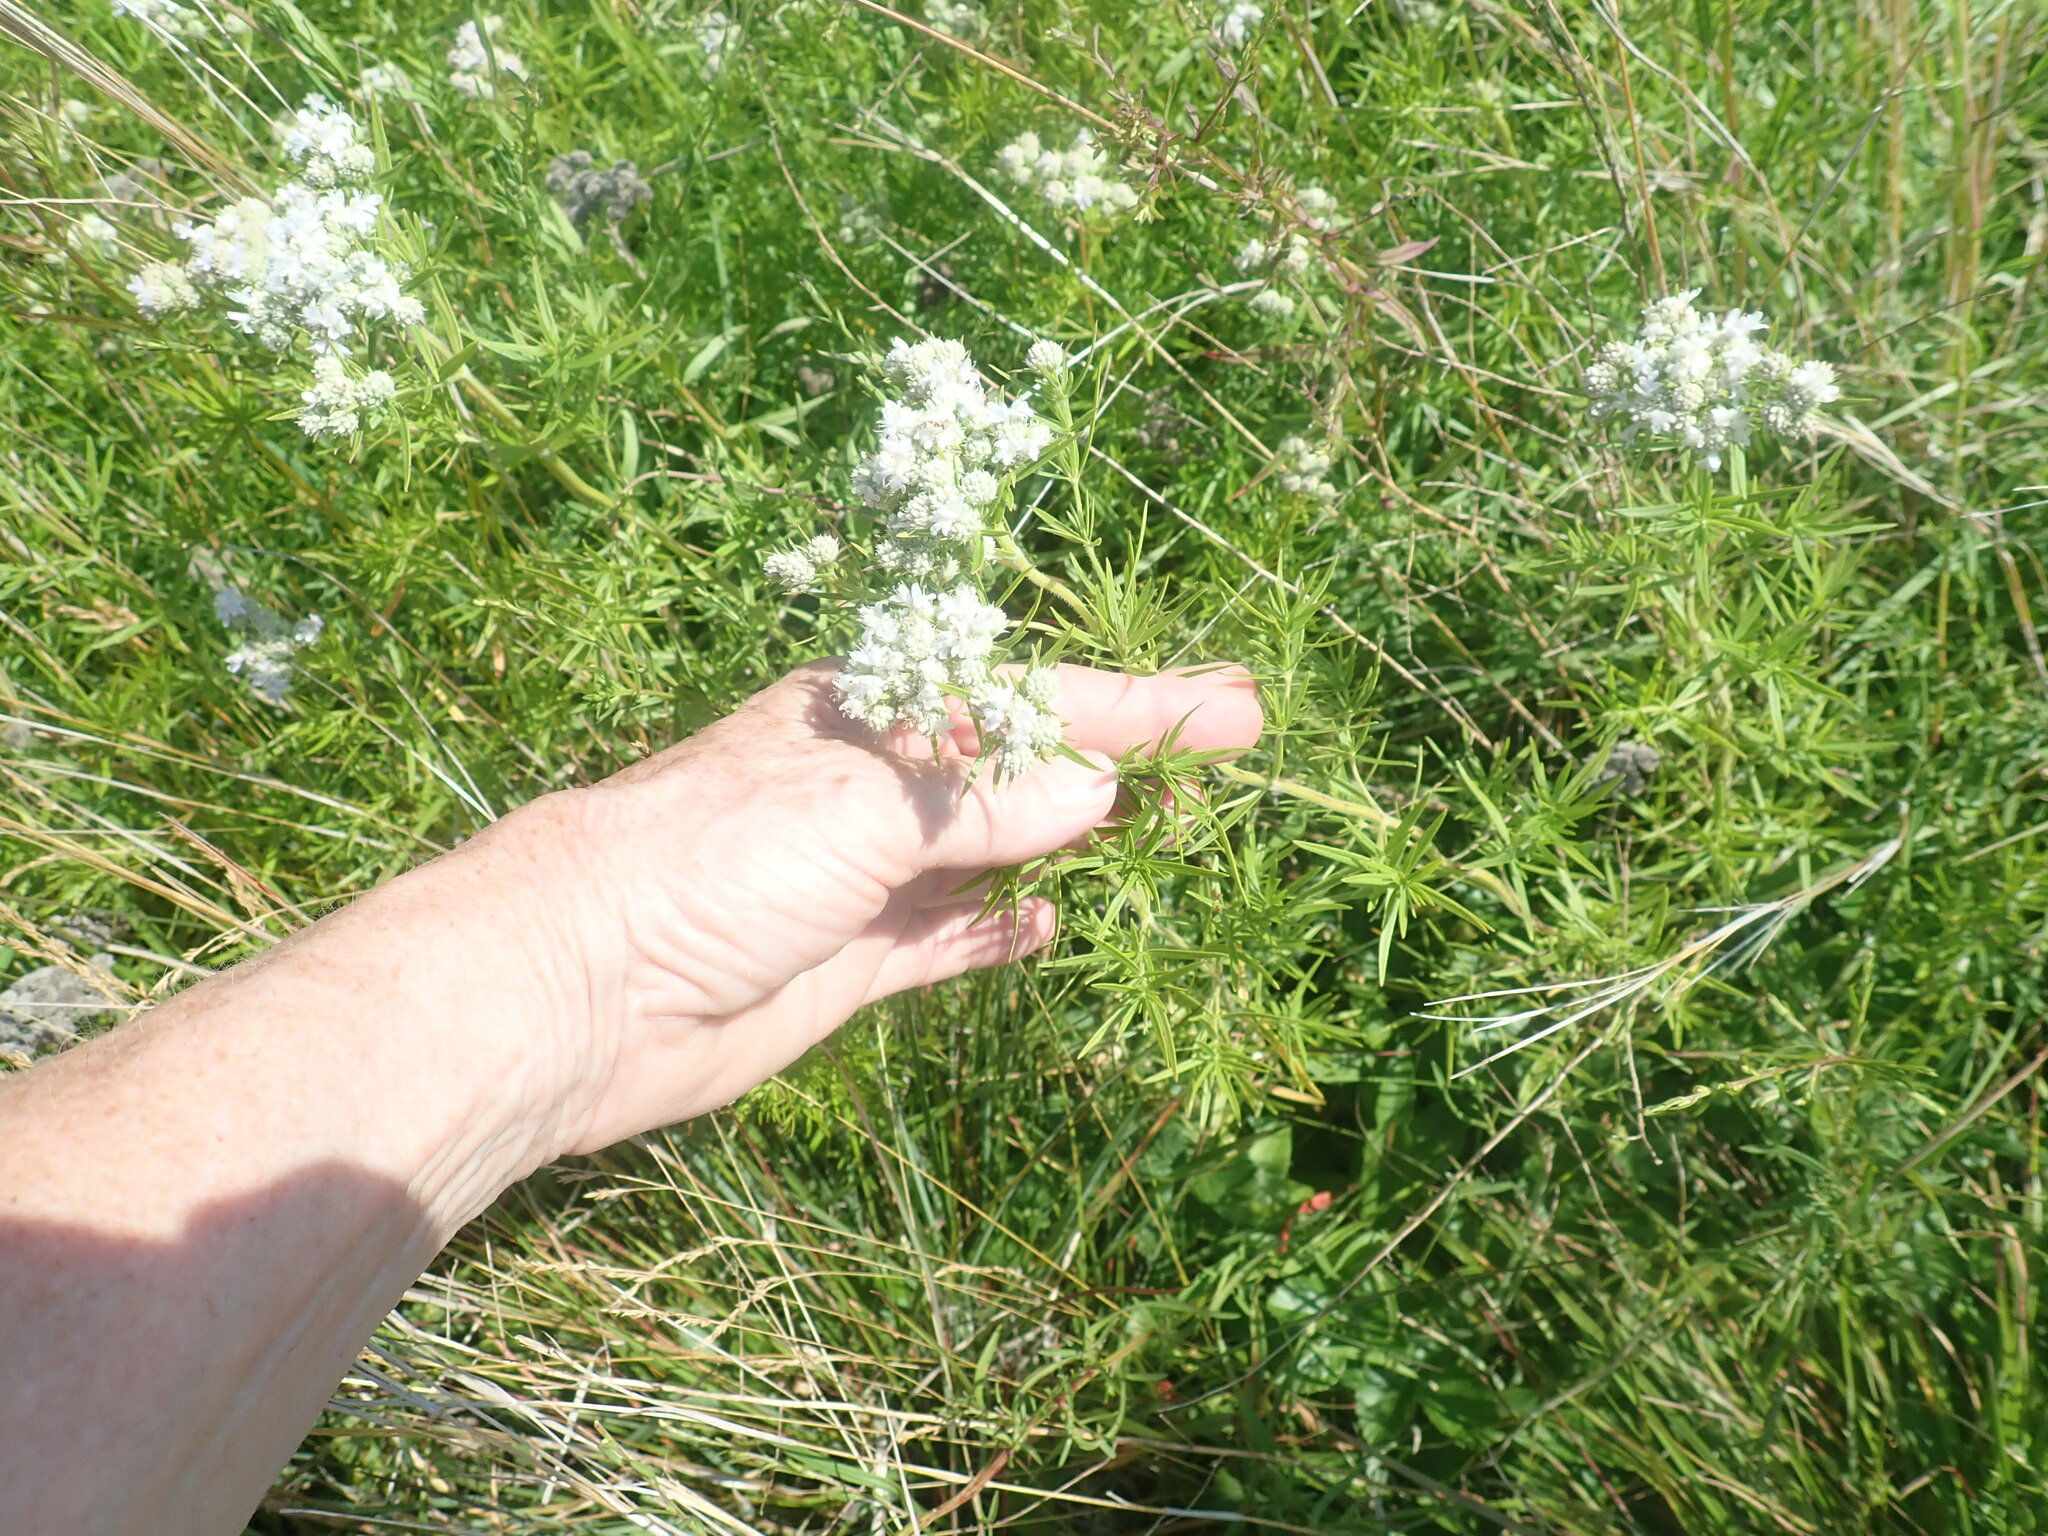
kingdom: Plantae
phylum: Tracheophyta
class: Magnoliopsida
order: Lamiales
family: Lamiaceae
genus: Pycnanthemum
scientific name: Pycnanthemum tenuifolium
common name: Narrow-leaf mountain-mint
